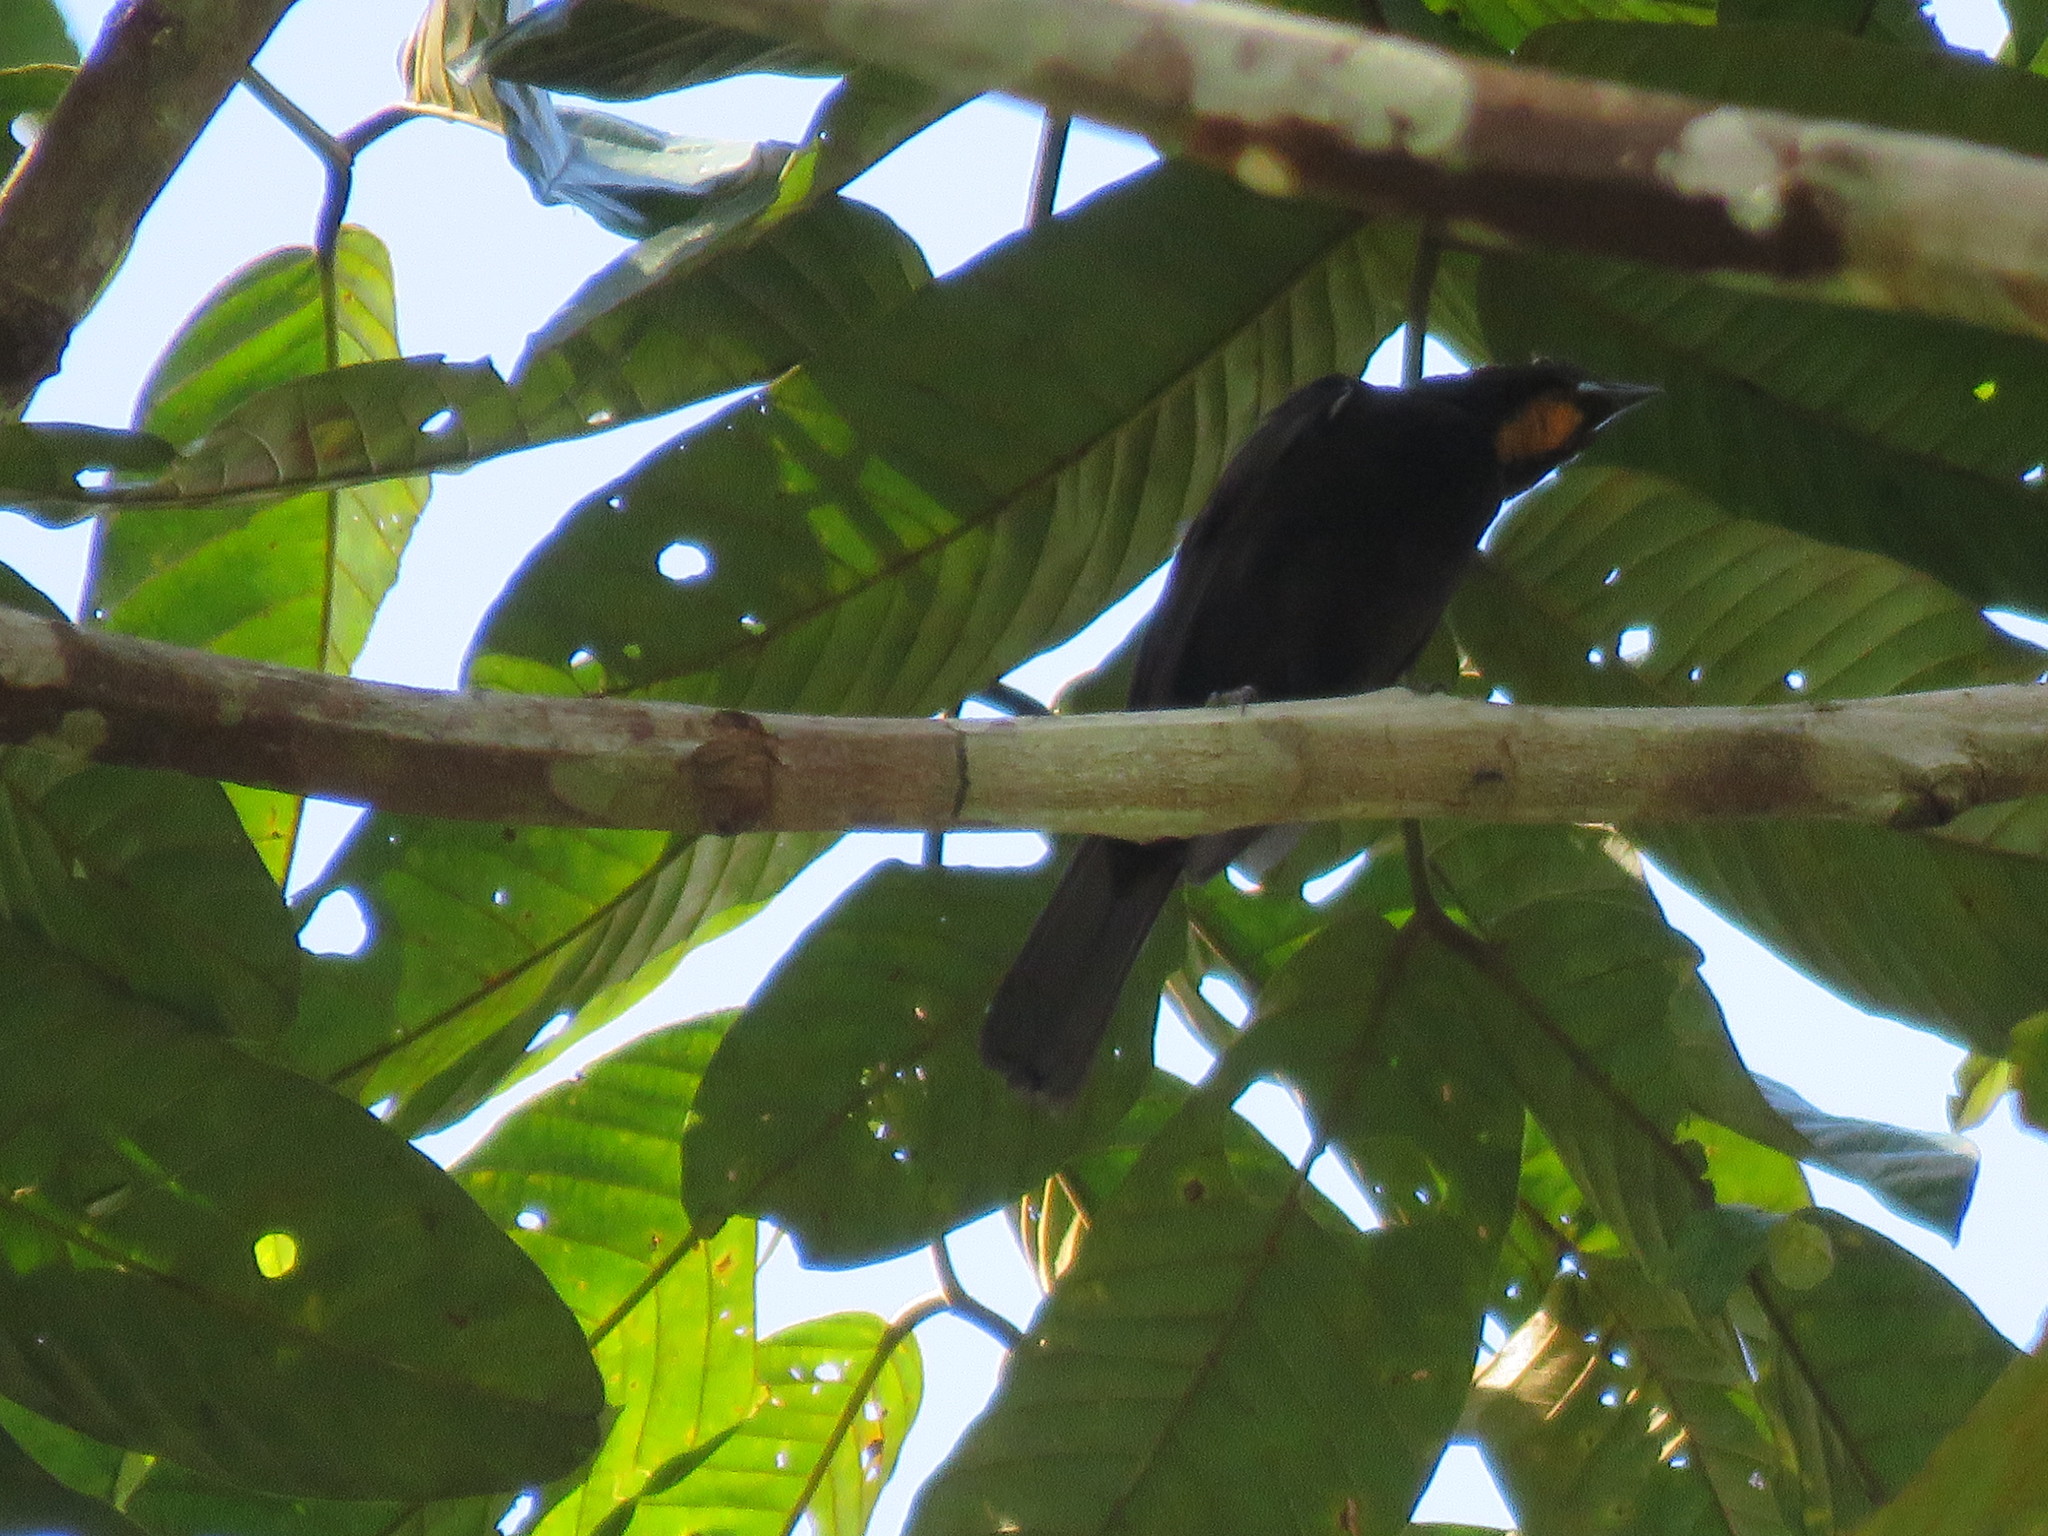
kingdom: Animalia
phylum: Chordata
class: Aves
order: Passeriformes
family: Thraupidae
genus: Loriotus
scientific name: Loriotus cristatus
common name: Flame-crested tanager
